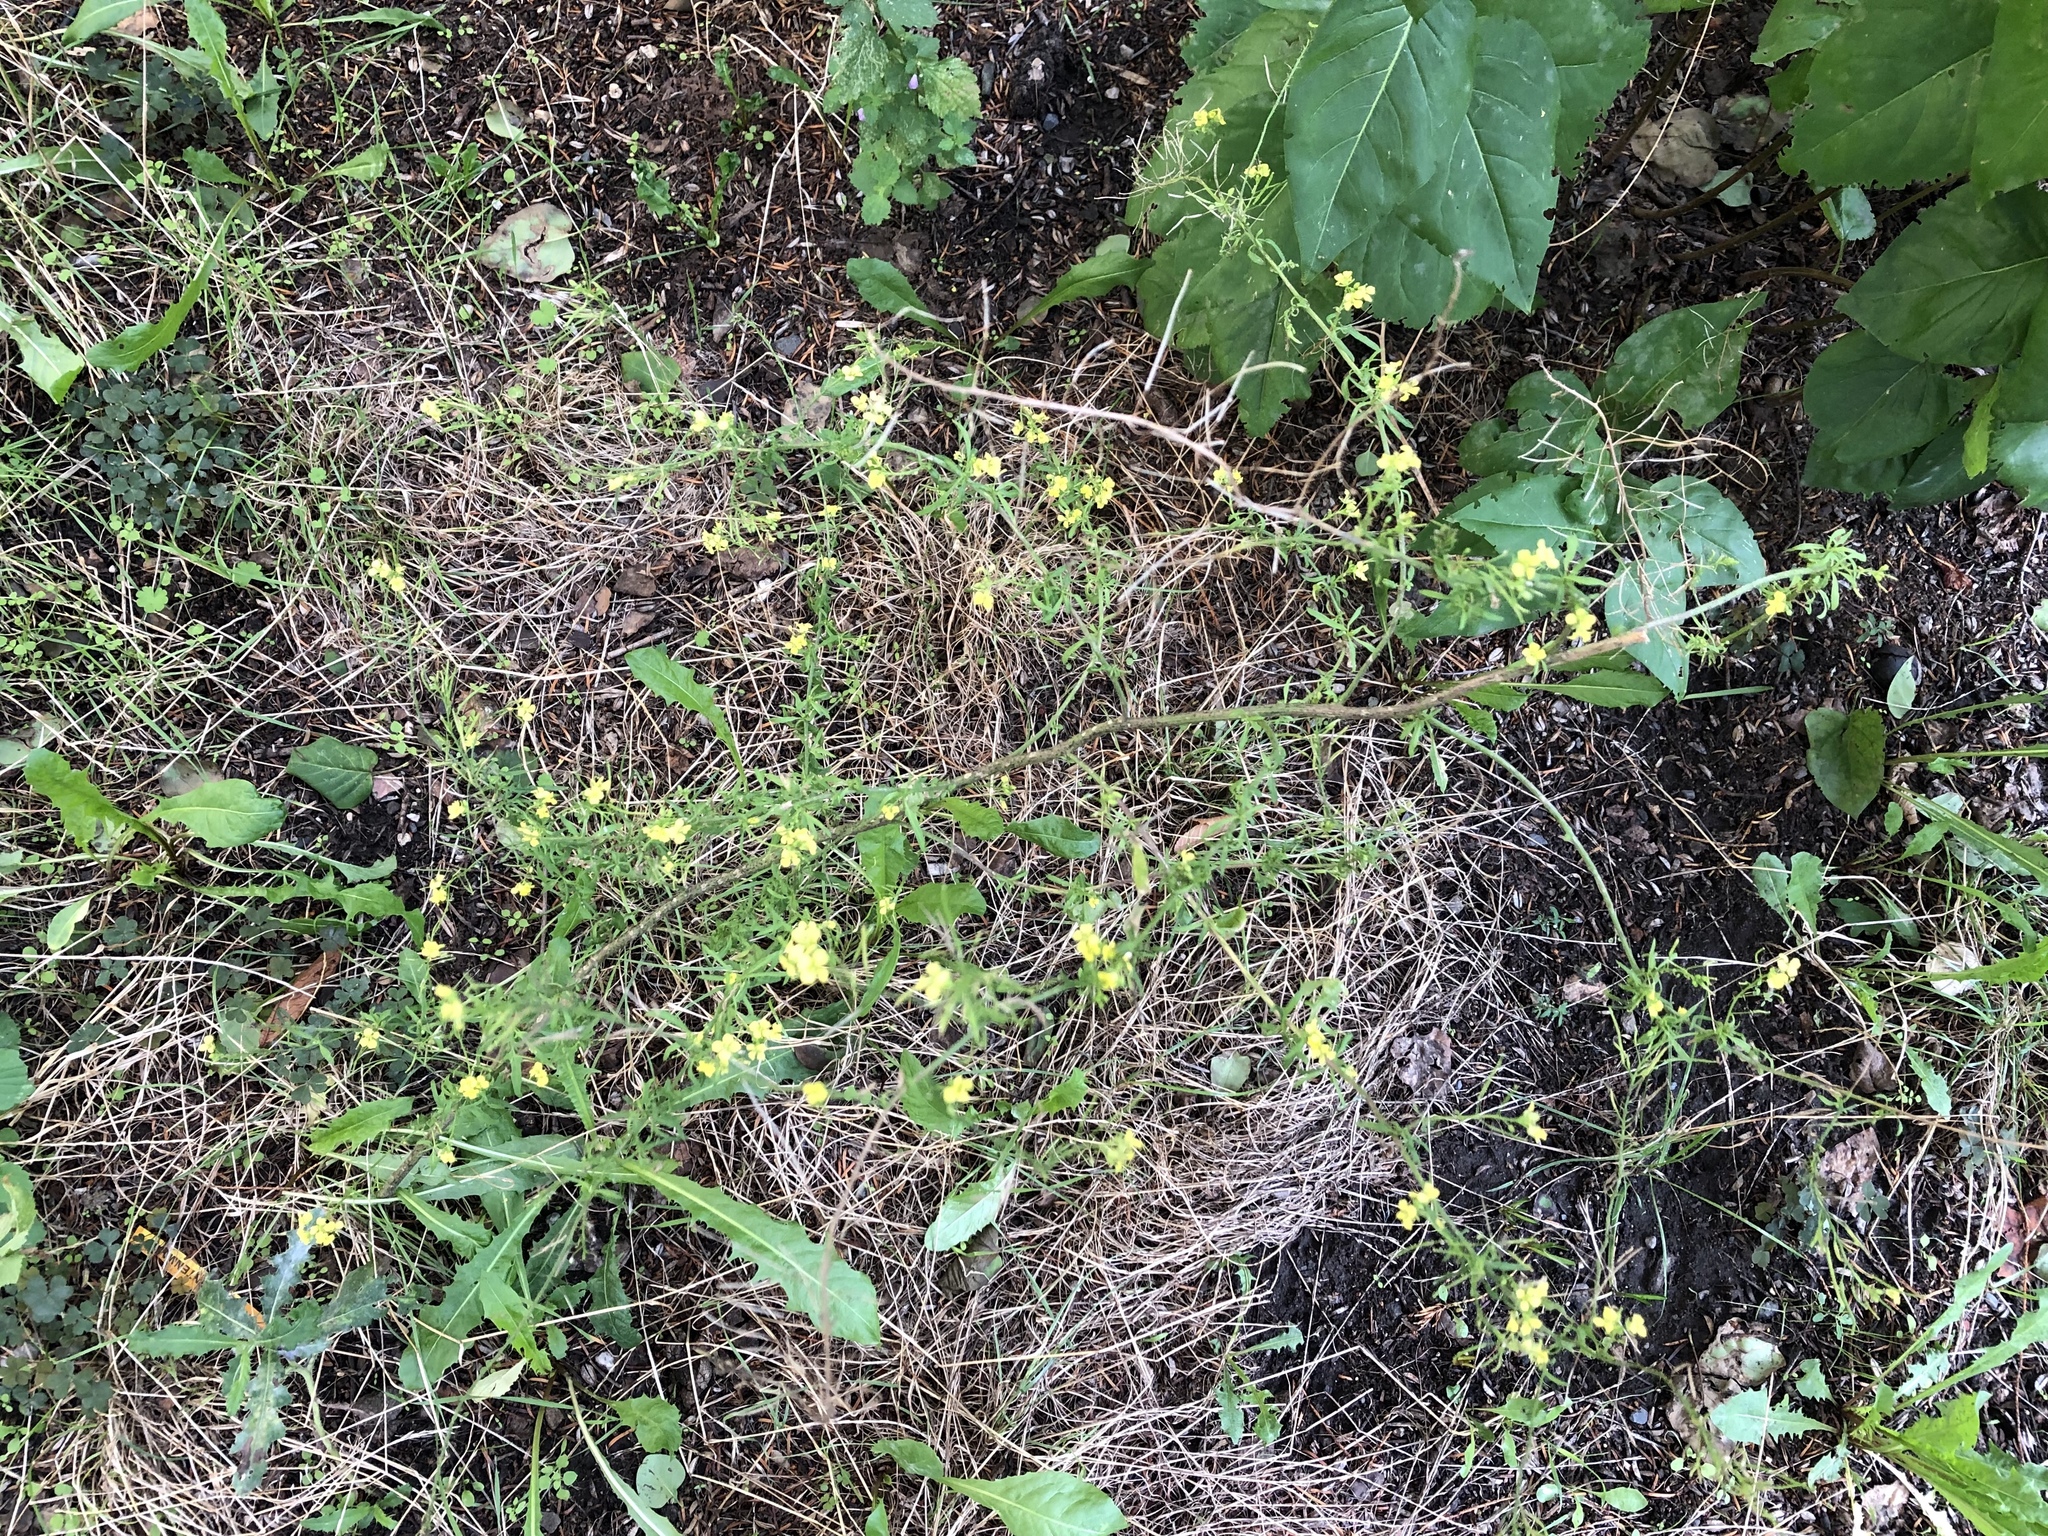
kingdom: Plantae
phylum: Tracheophyta
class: Magnoliopsida
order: Brassicales
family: Brassicaceae
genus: Sisymbrium
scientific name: Sisymbrium loeselii
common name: False london-rocket
